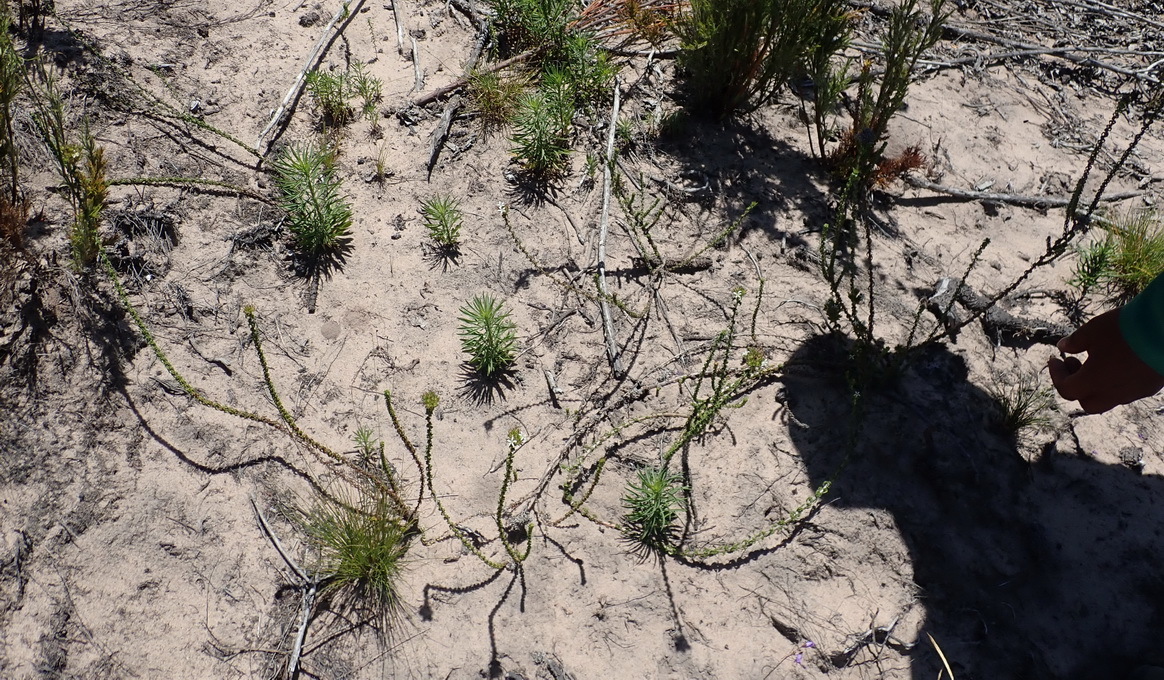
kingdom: Plantae
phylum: Tracheophyta
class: Magnoliopsida
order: Asterales
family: Campanulaceae
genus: Wahlenbergia
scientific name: Wahlenbergia desmantha
